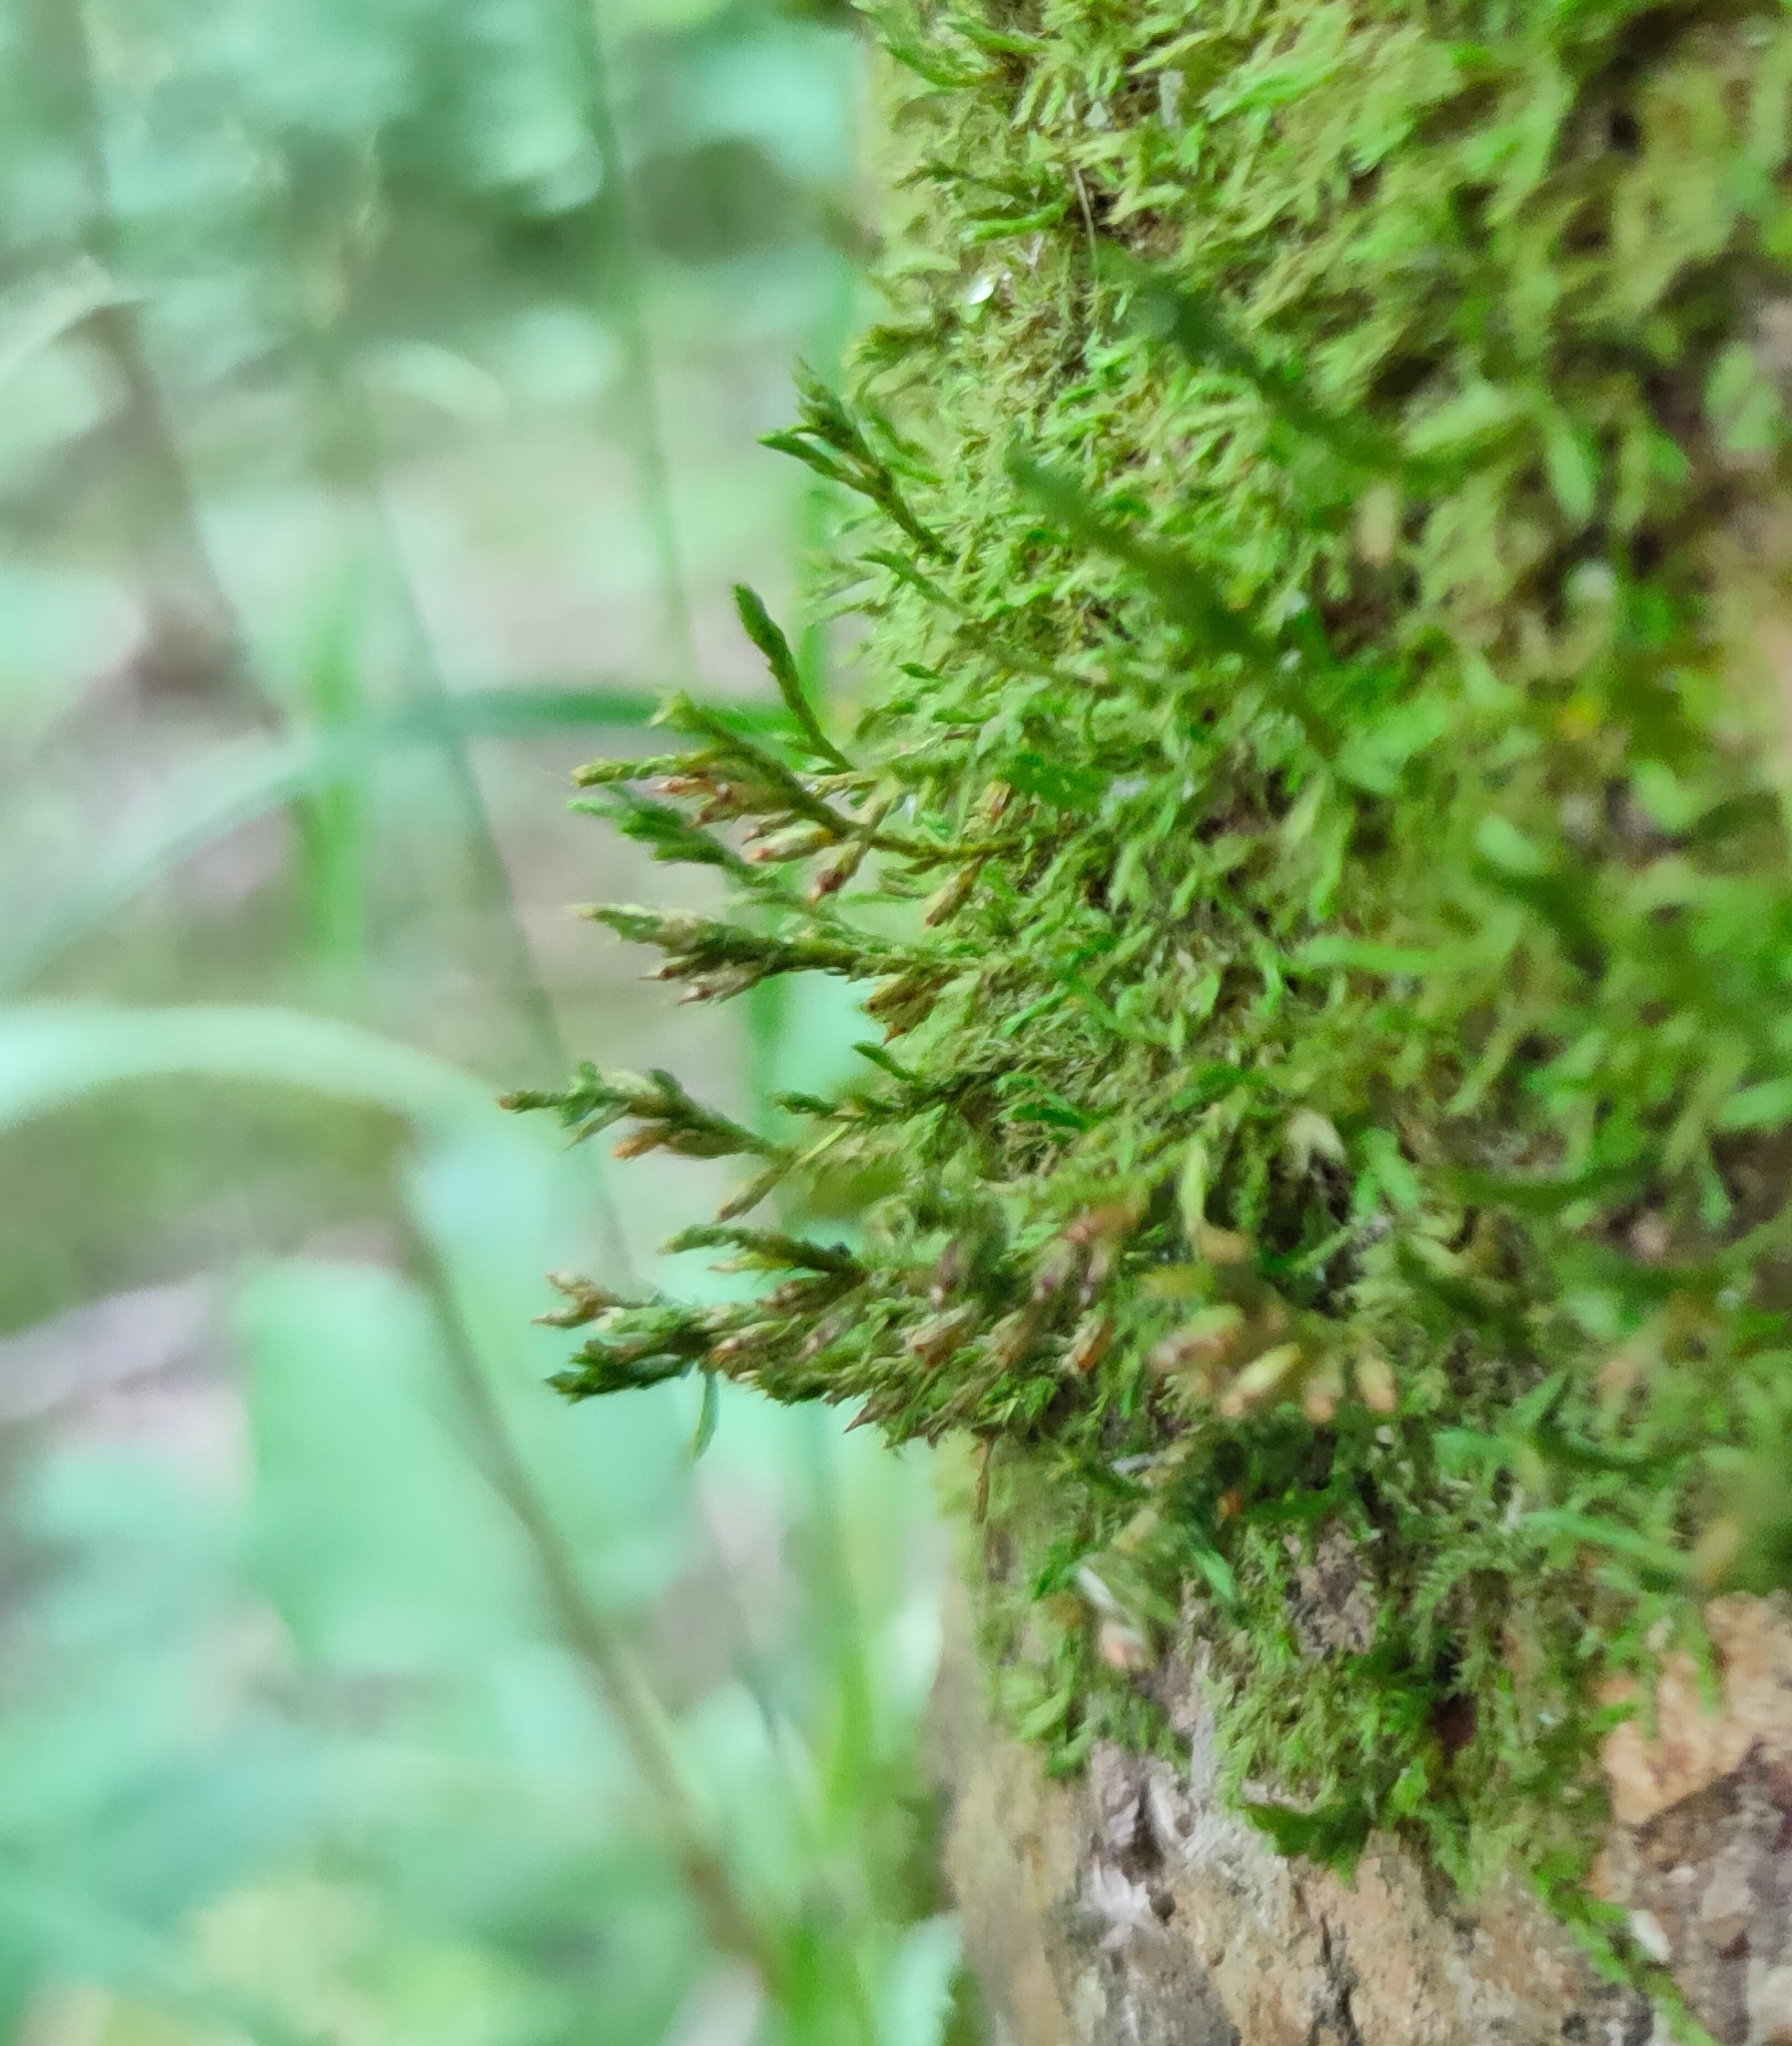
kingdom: Plantae
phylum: Bryophyta
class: Bryopsida
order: Hypnales
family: Cryphaeaceae
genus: Cryphaea
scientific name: Cryphaea heteromalla
